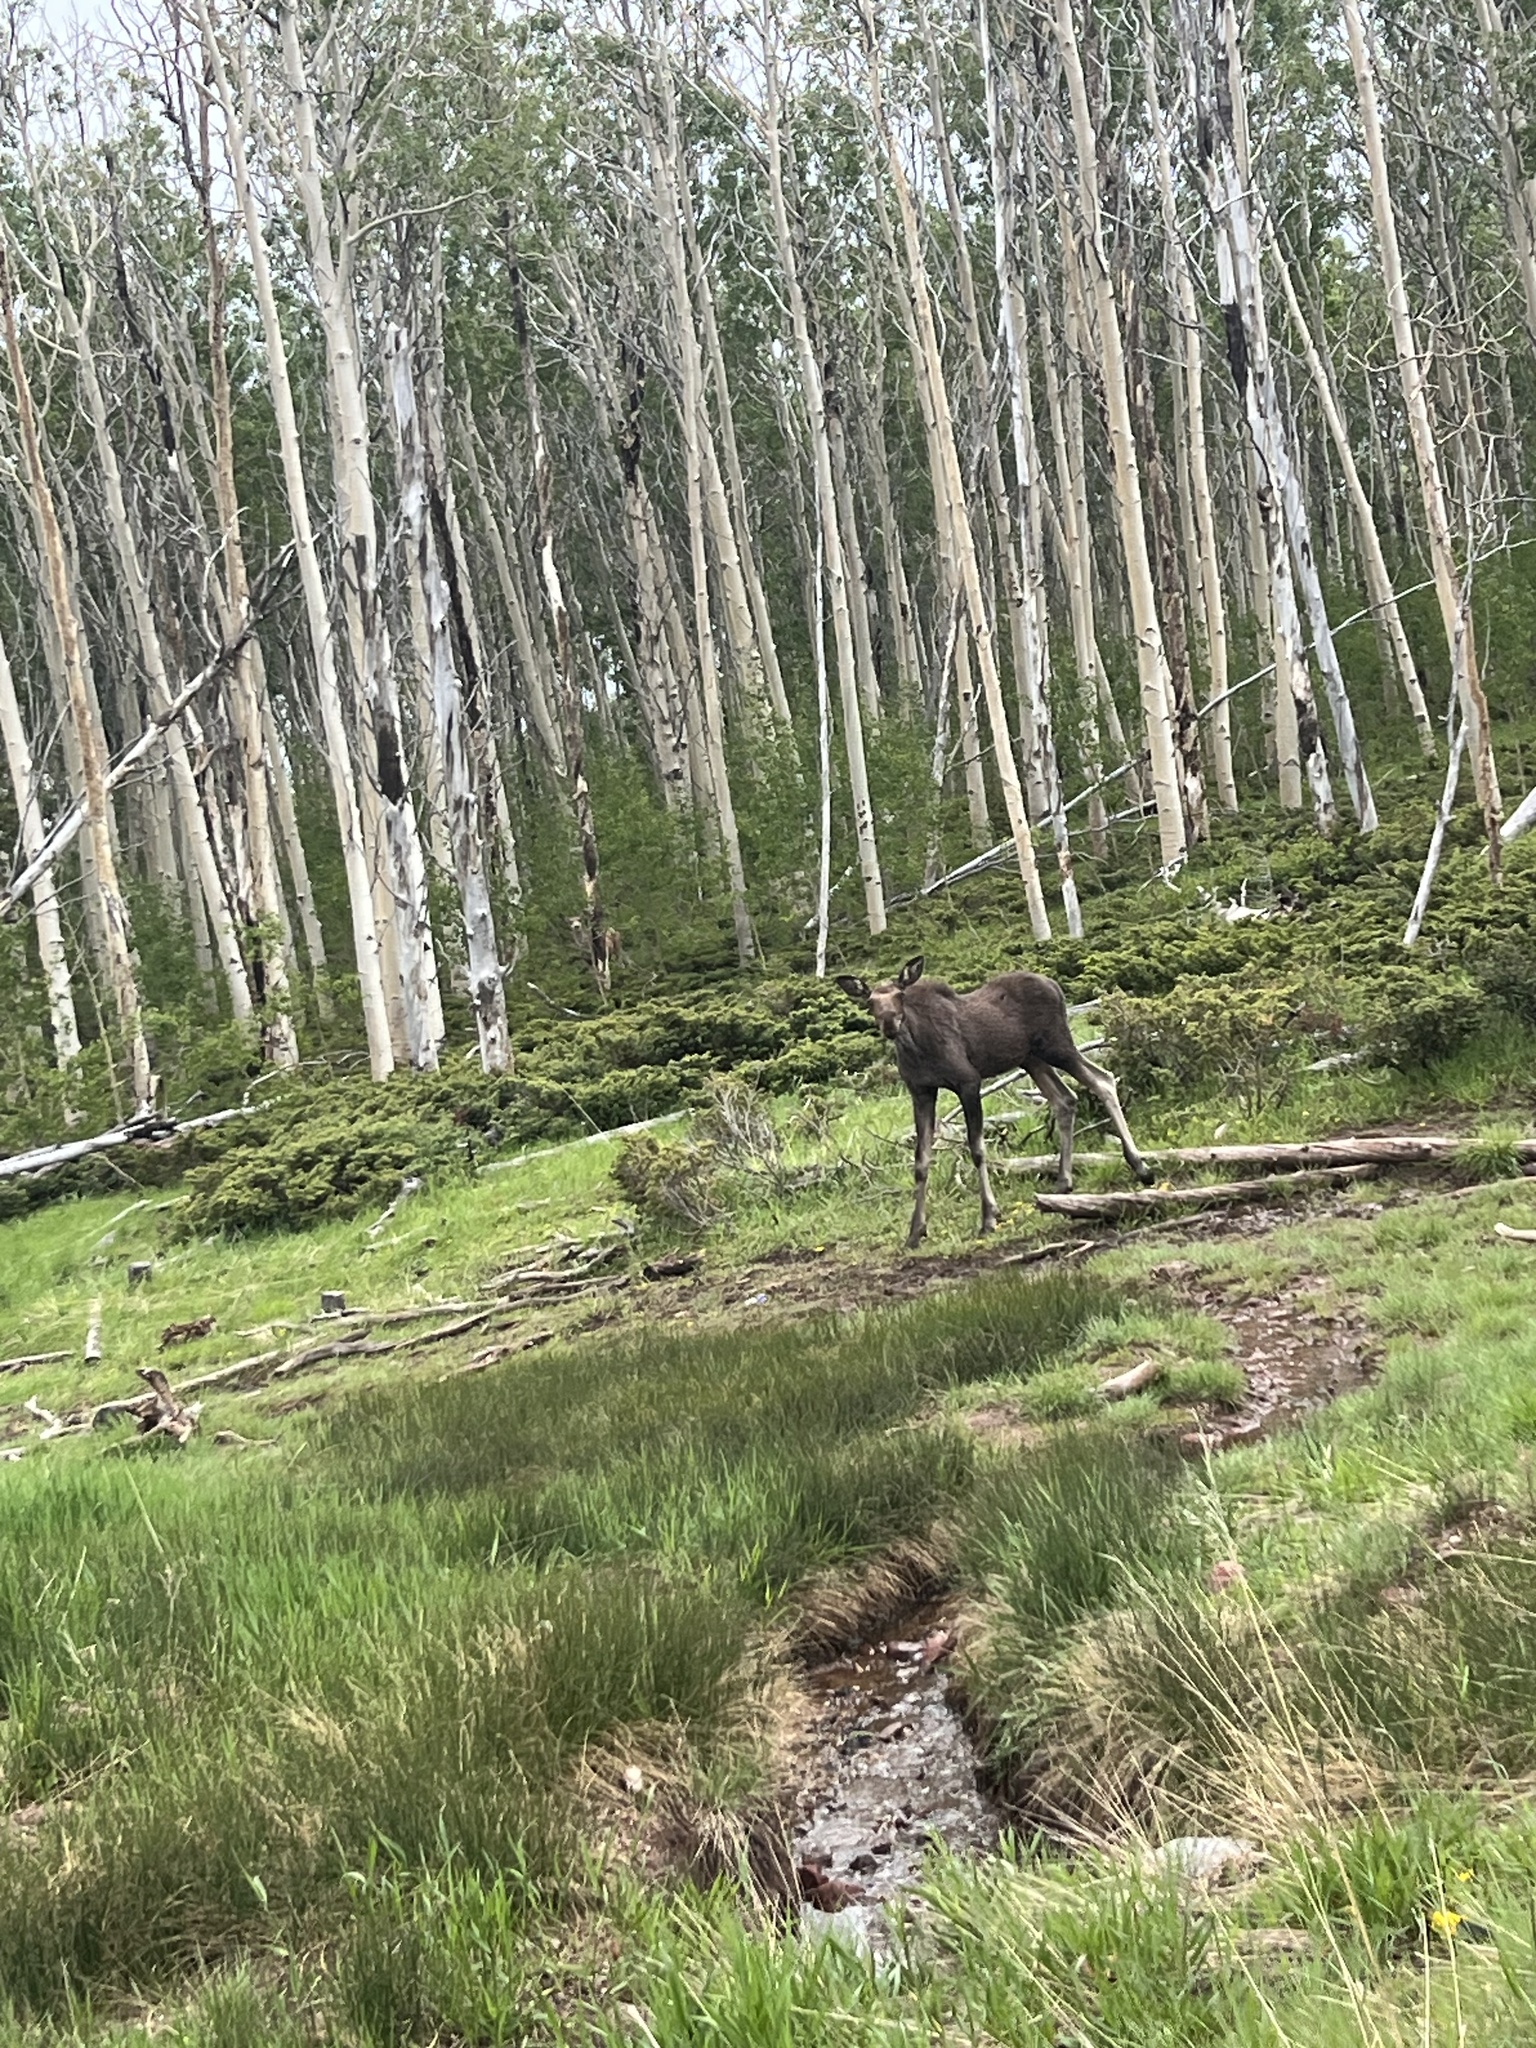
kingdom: Animalia
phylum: Chordata
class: Mammalia
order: Artiodactyla
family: Cervidae
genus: Alces
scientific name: Alces alces
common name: Moose
